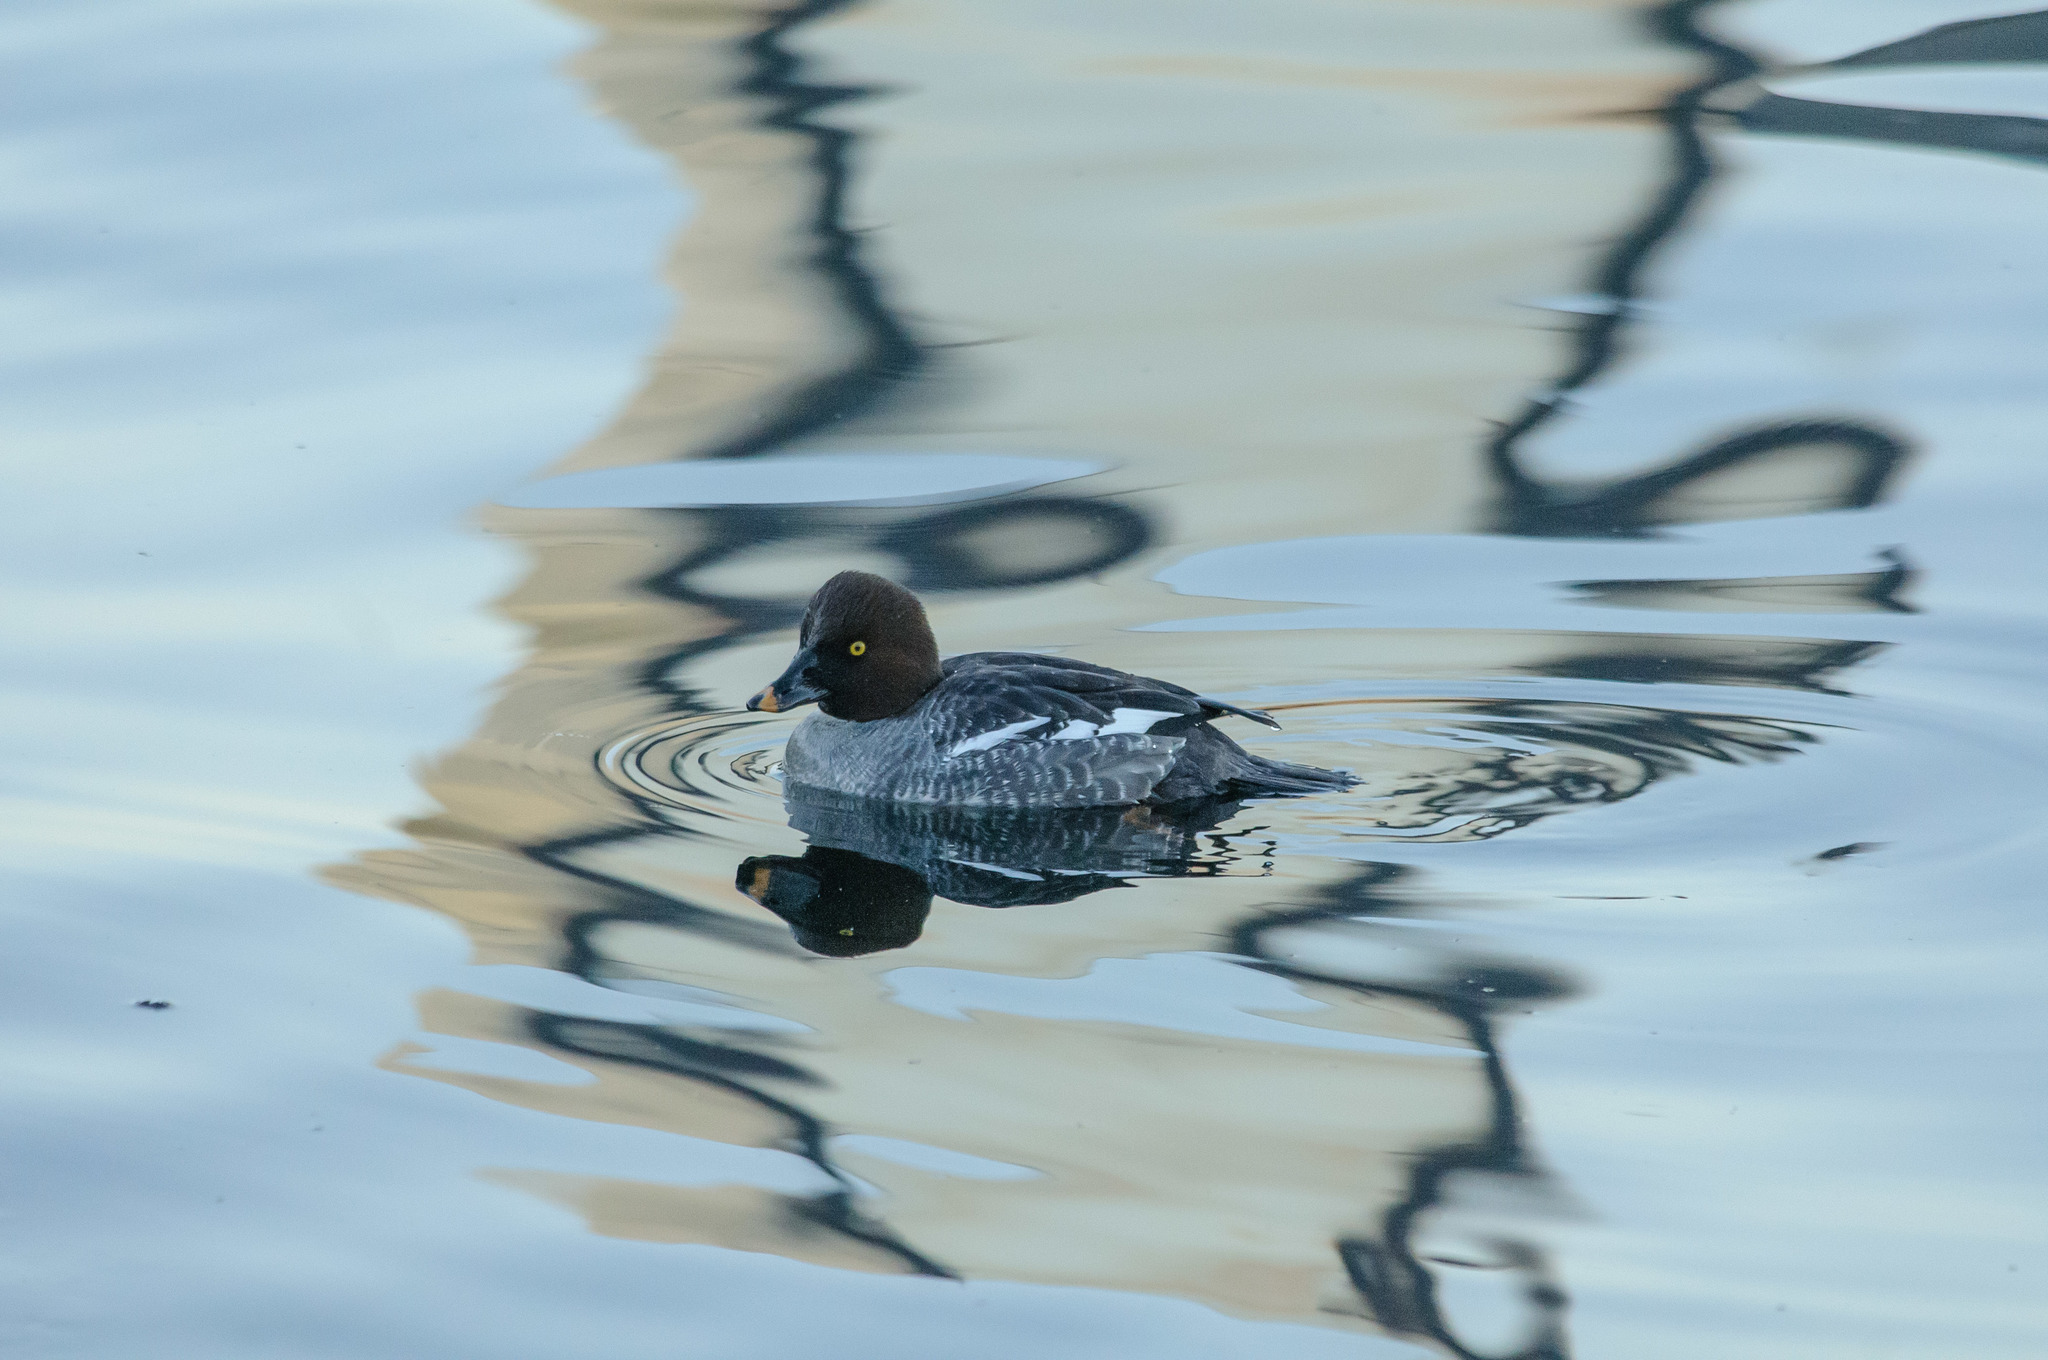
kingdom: Animalia
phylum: Chordata
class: Aves
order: Anseriformes
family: Anatidae
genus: Bucephala
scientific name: Bucephala clangula
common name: Common goldeneye
